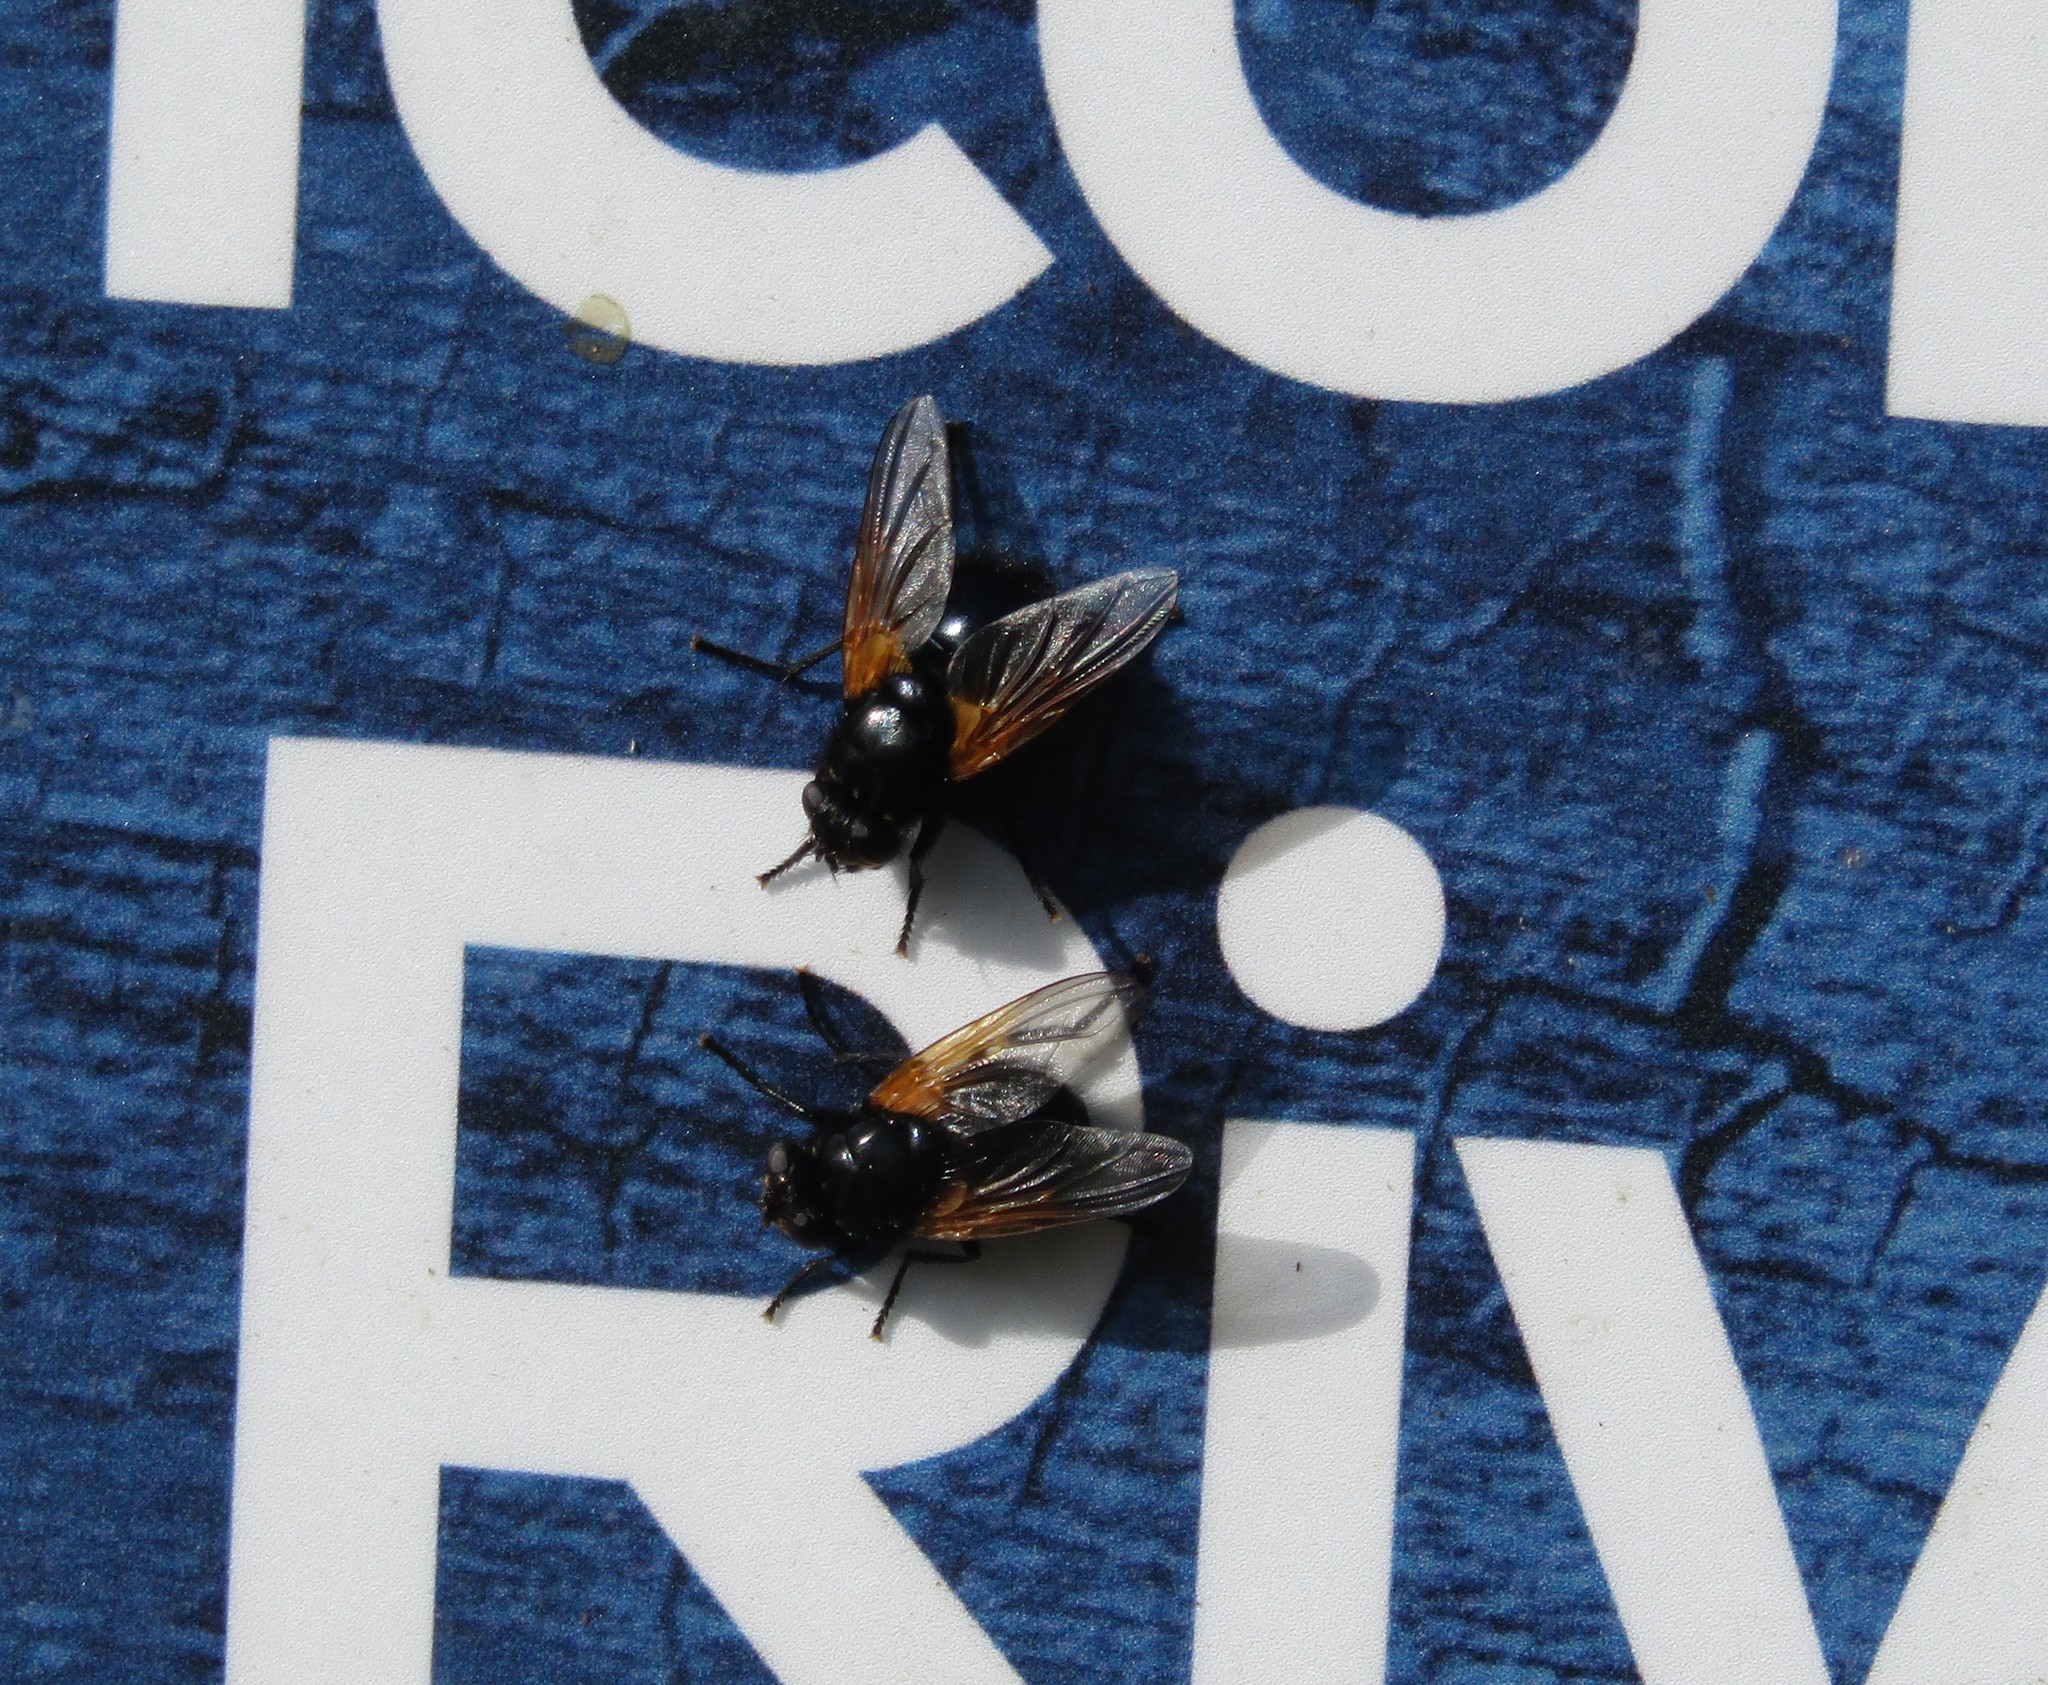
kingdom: Animalia
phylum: Arthropoda
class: Insecta
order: Diptera
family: Muscidae
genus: Mesembrina
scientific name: Mesembrina meridiana
